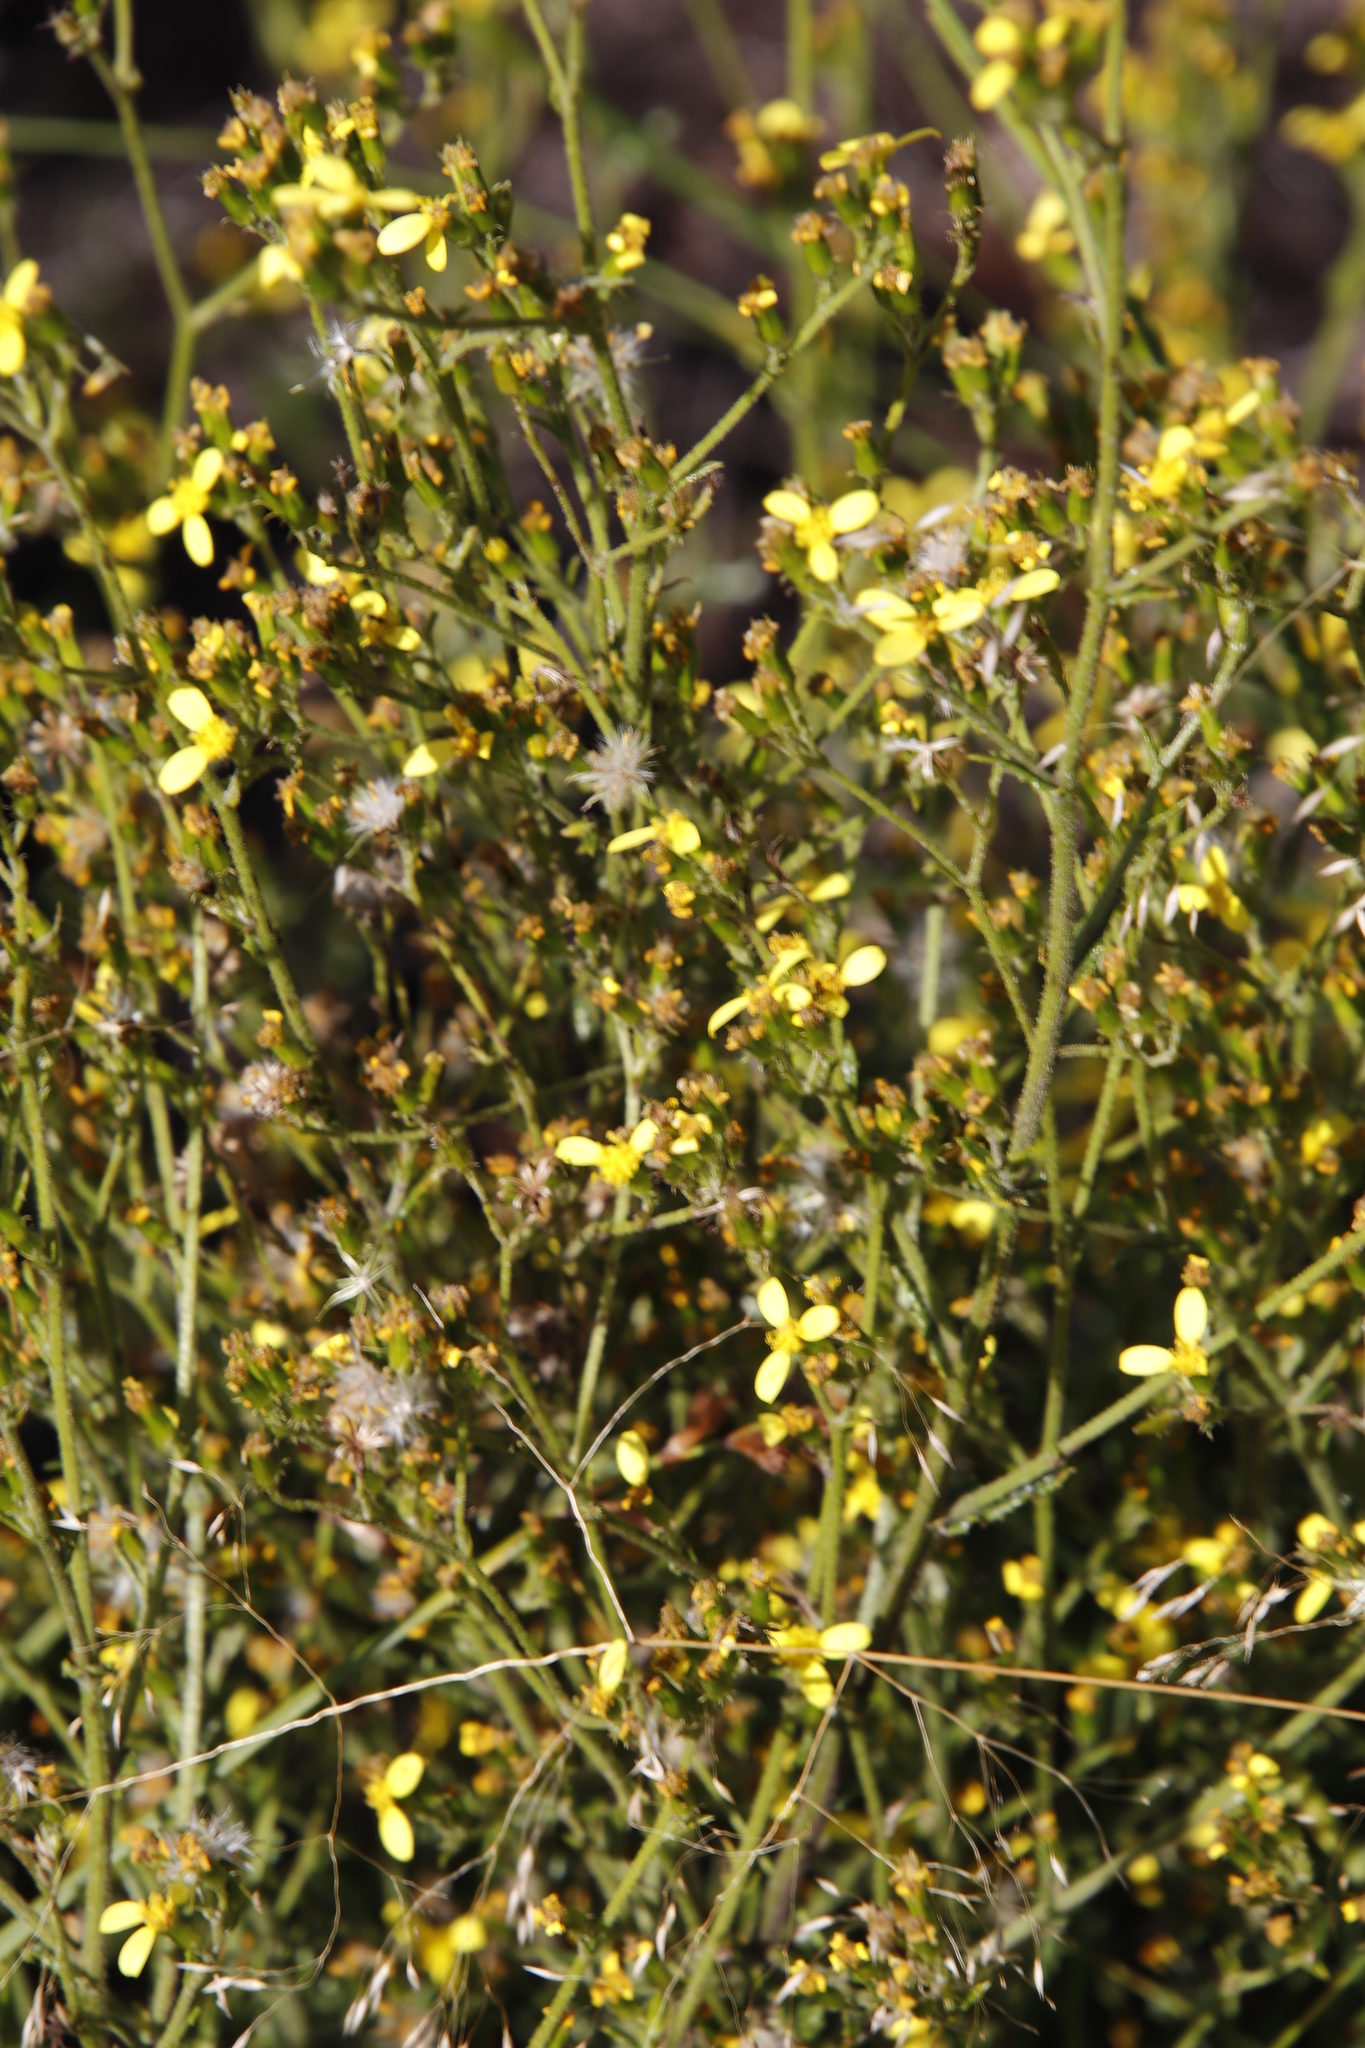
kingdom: Plantae
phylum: Tracheophyta
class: Magnoliopsida
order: Asterales
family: Asteraceae
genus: Senecio
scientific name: Senecio pubigerus
